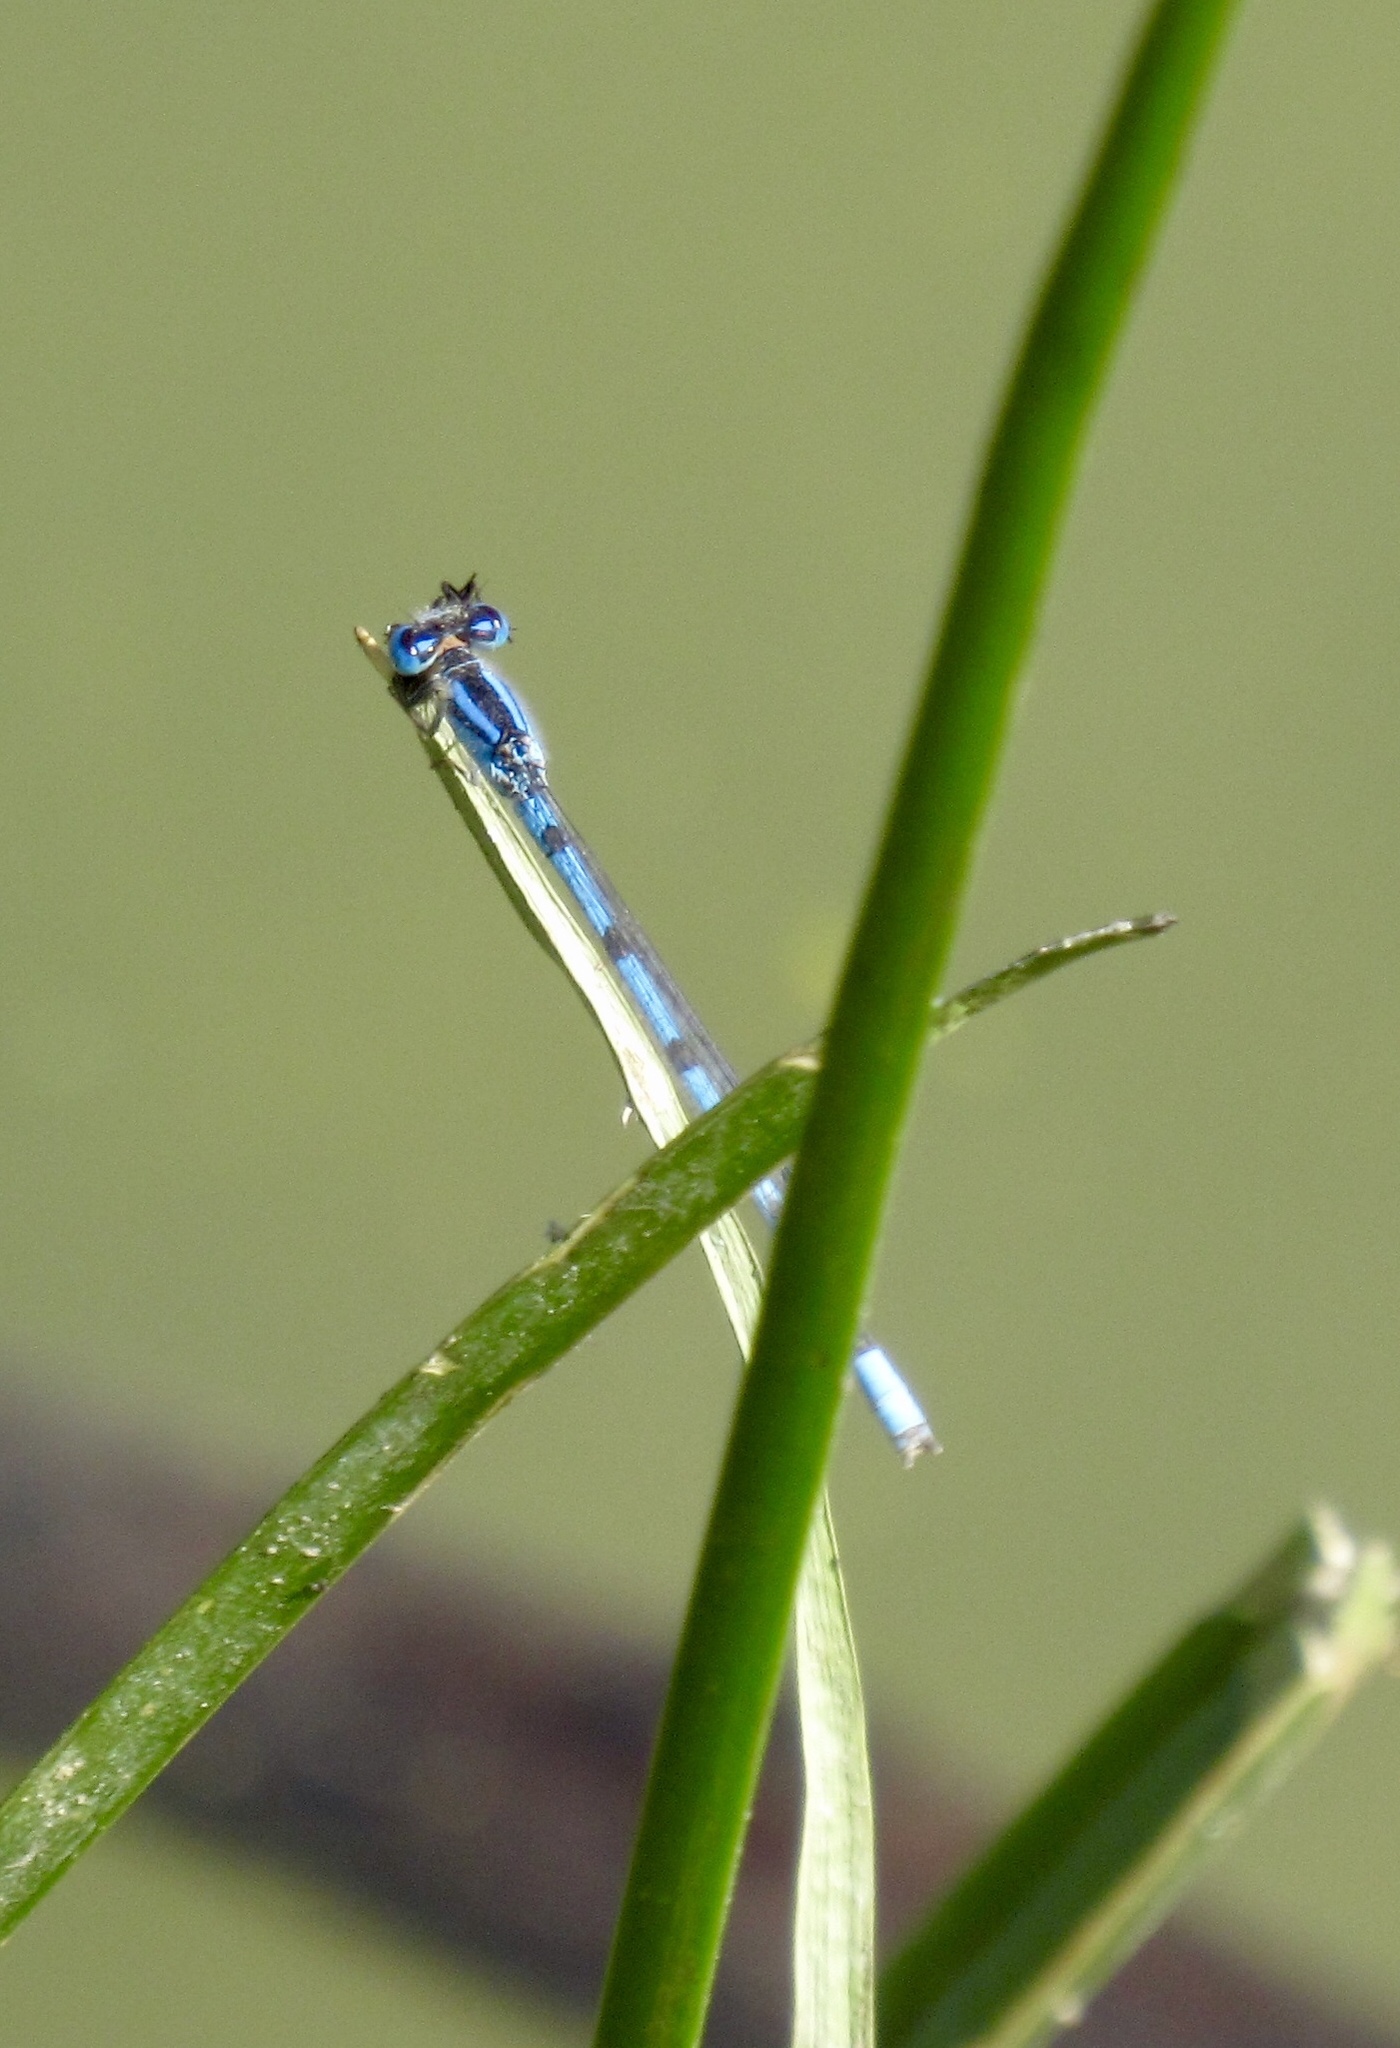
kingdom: Animalia
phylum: Arthropoda
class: Insecta
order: Odonata
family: Coenagrionidae
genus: Enallagma
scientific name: Enallagma civile
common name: Damselfly
